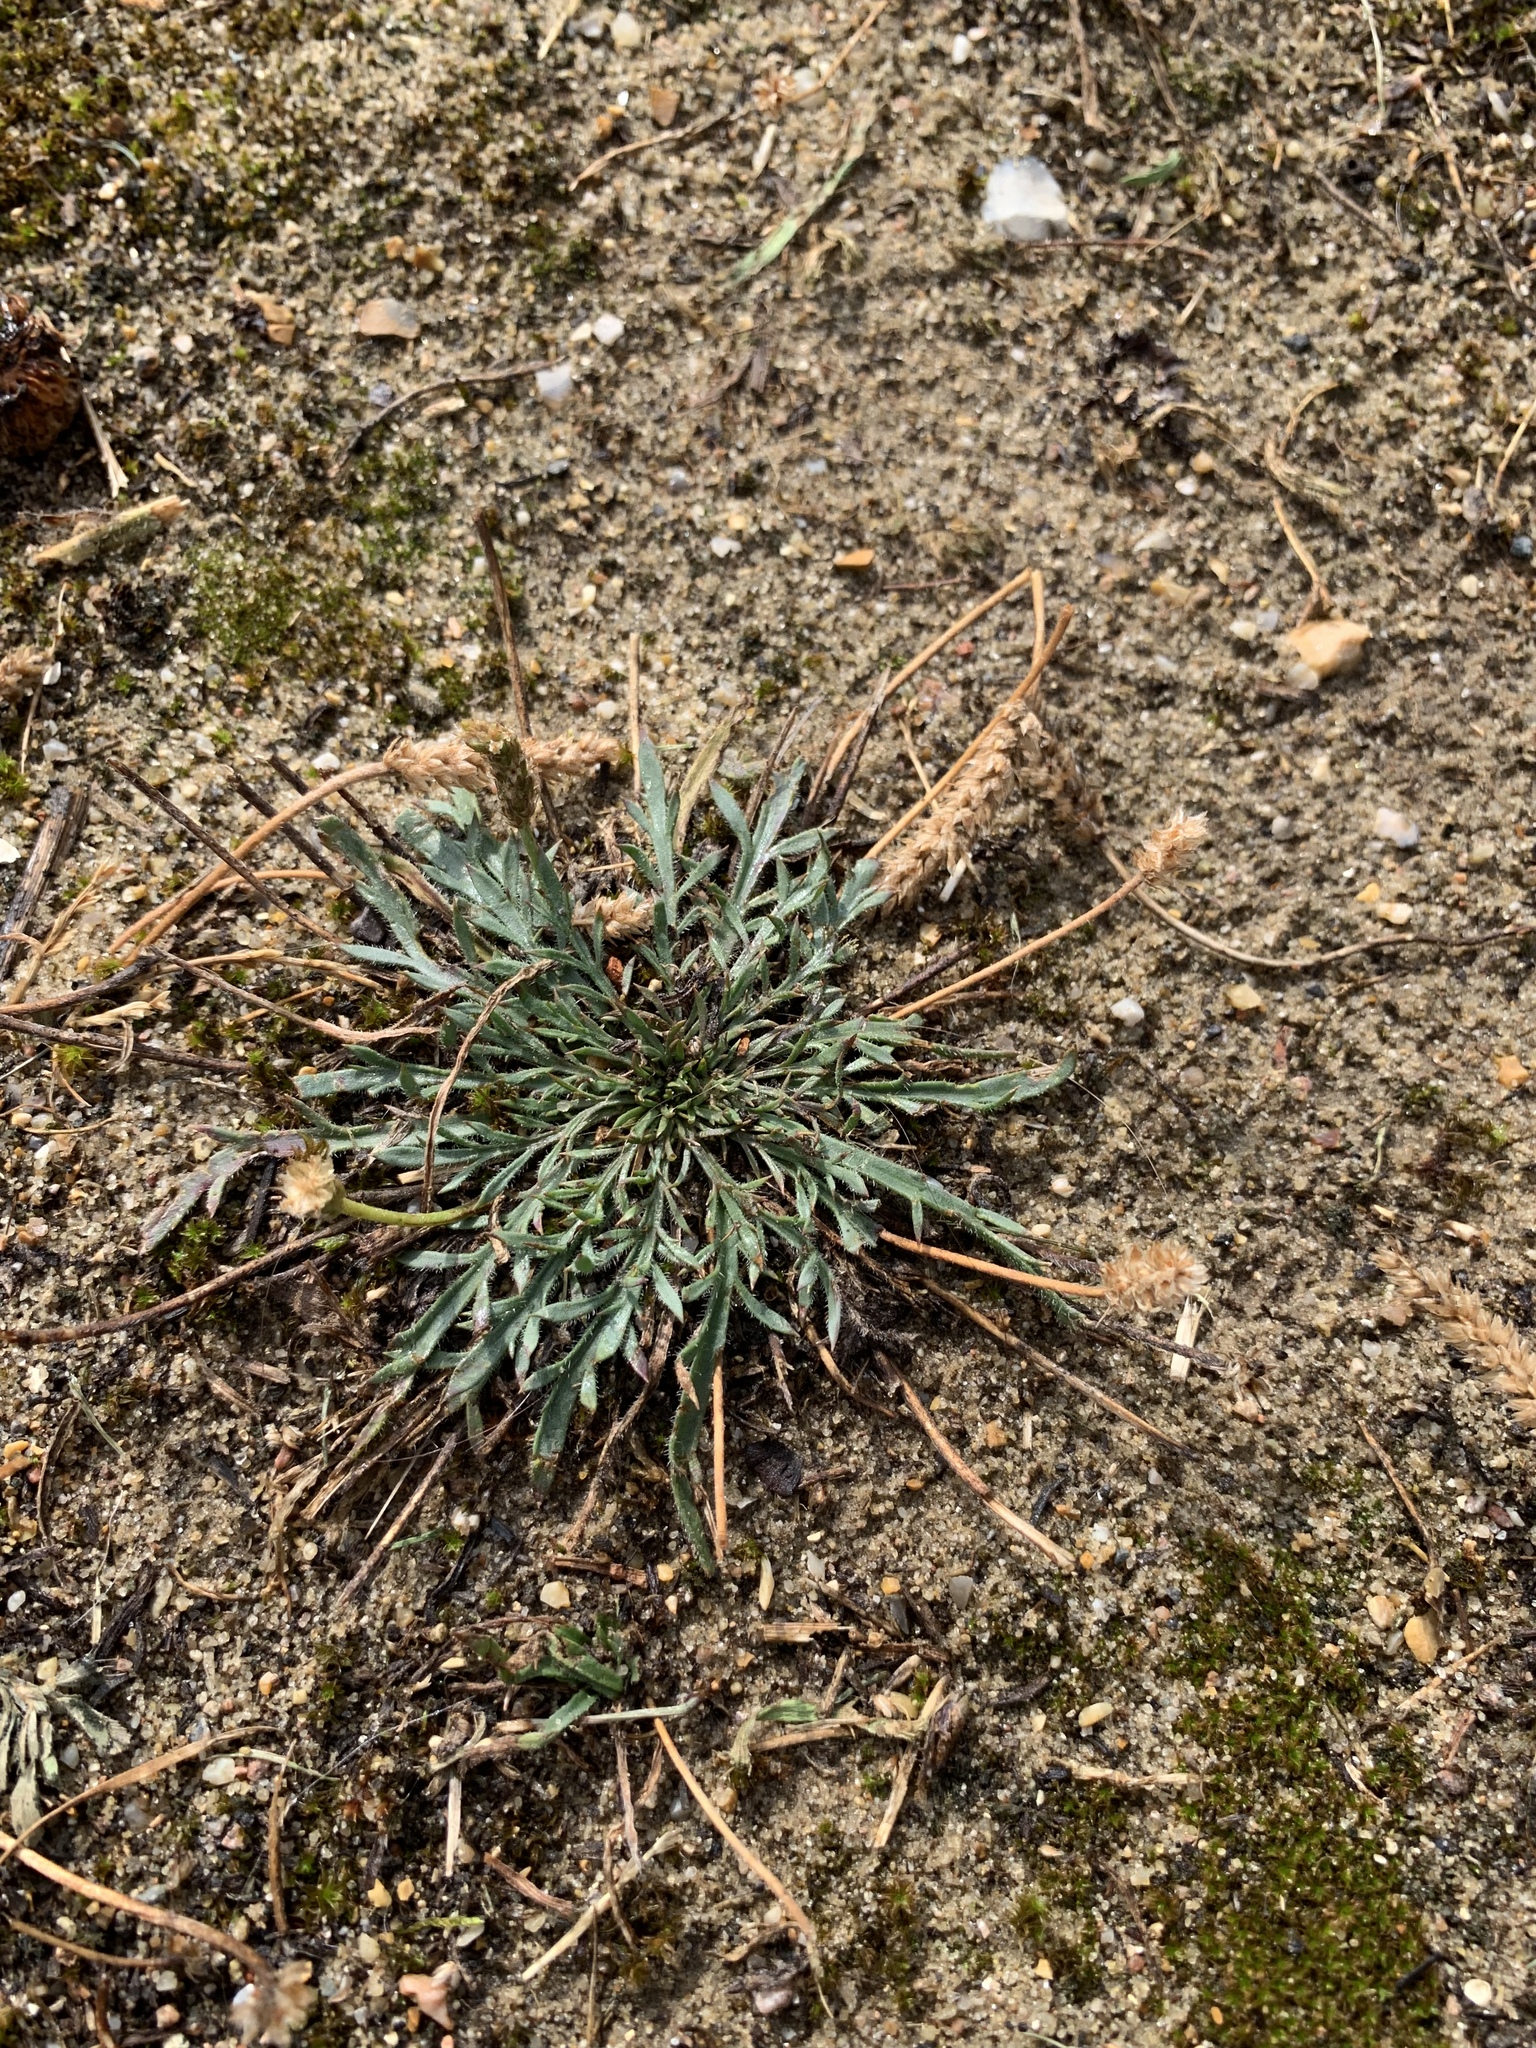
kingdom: Plantae
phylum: Tracheophyta
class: Magnoliopsida
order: Lamiales
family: Plantaginaceae
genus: Plantago
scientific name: Plantago coronopus
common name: Buck's-horn plantain
